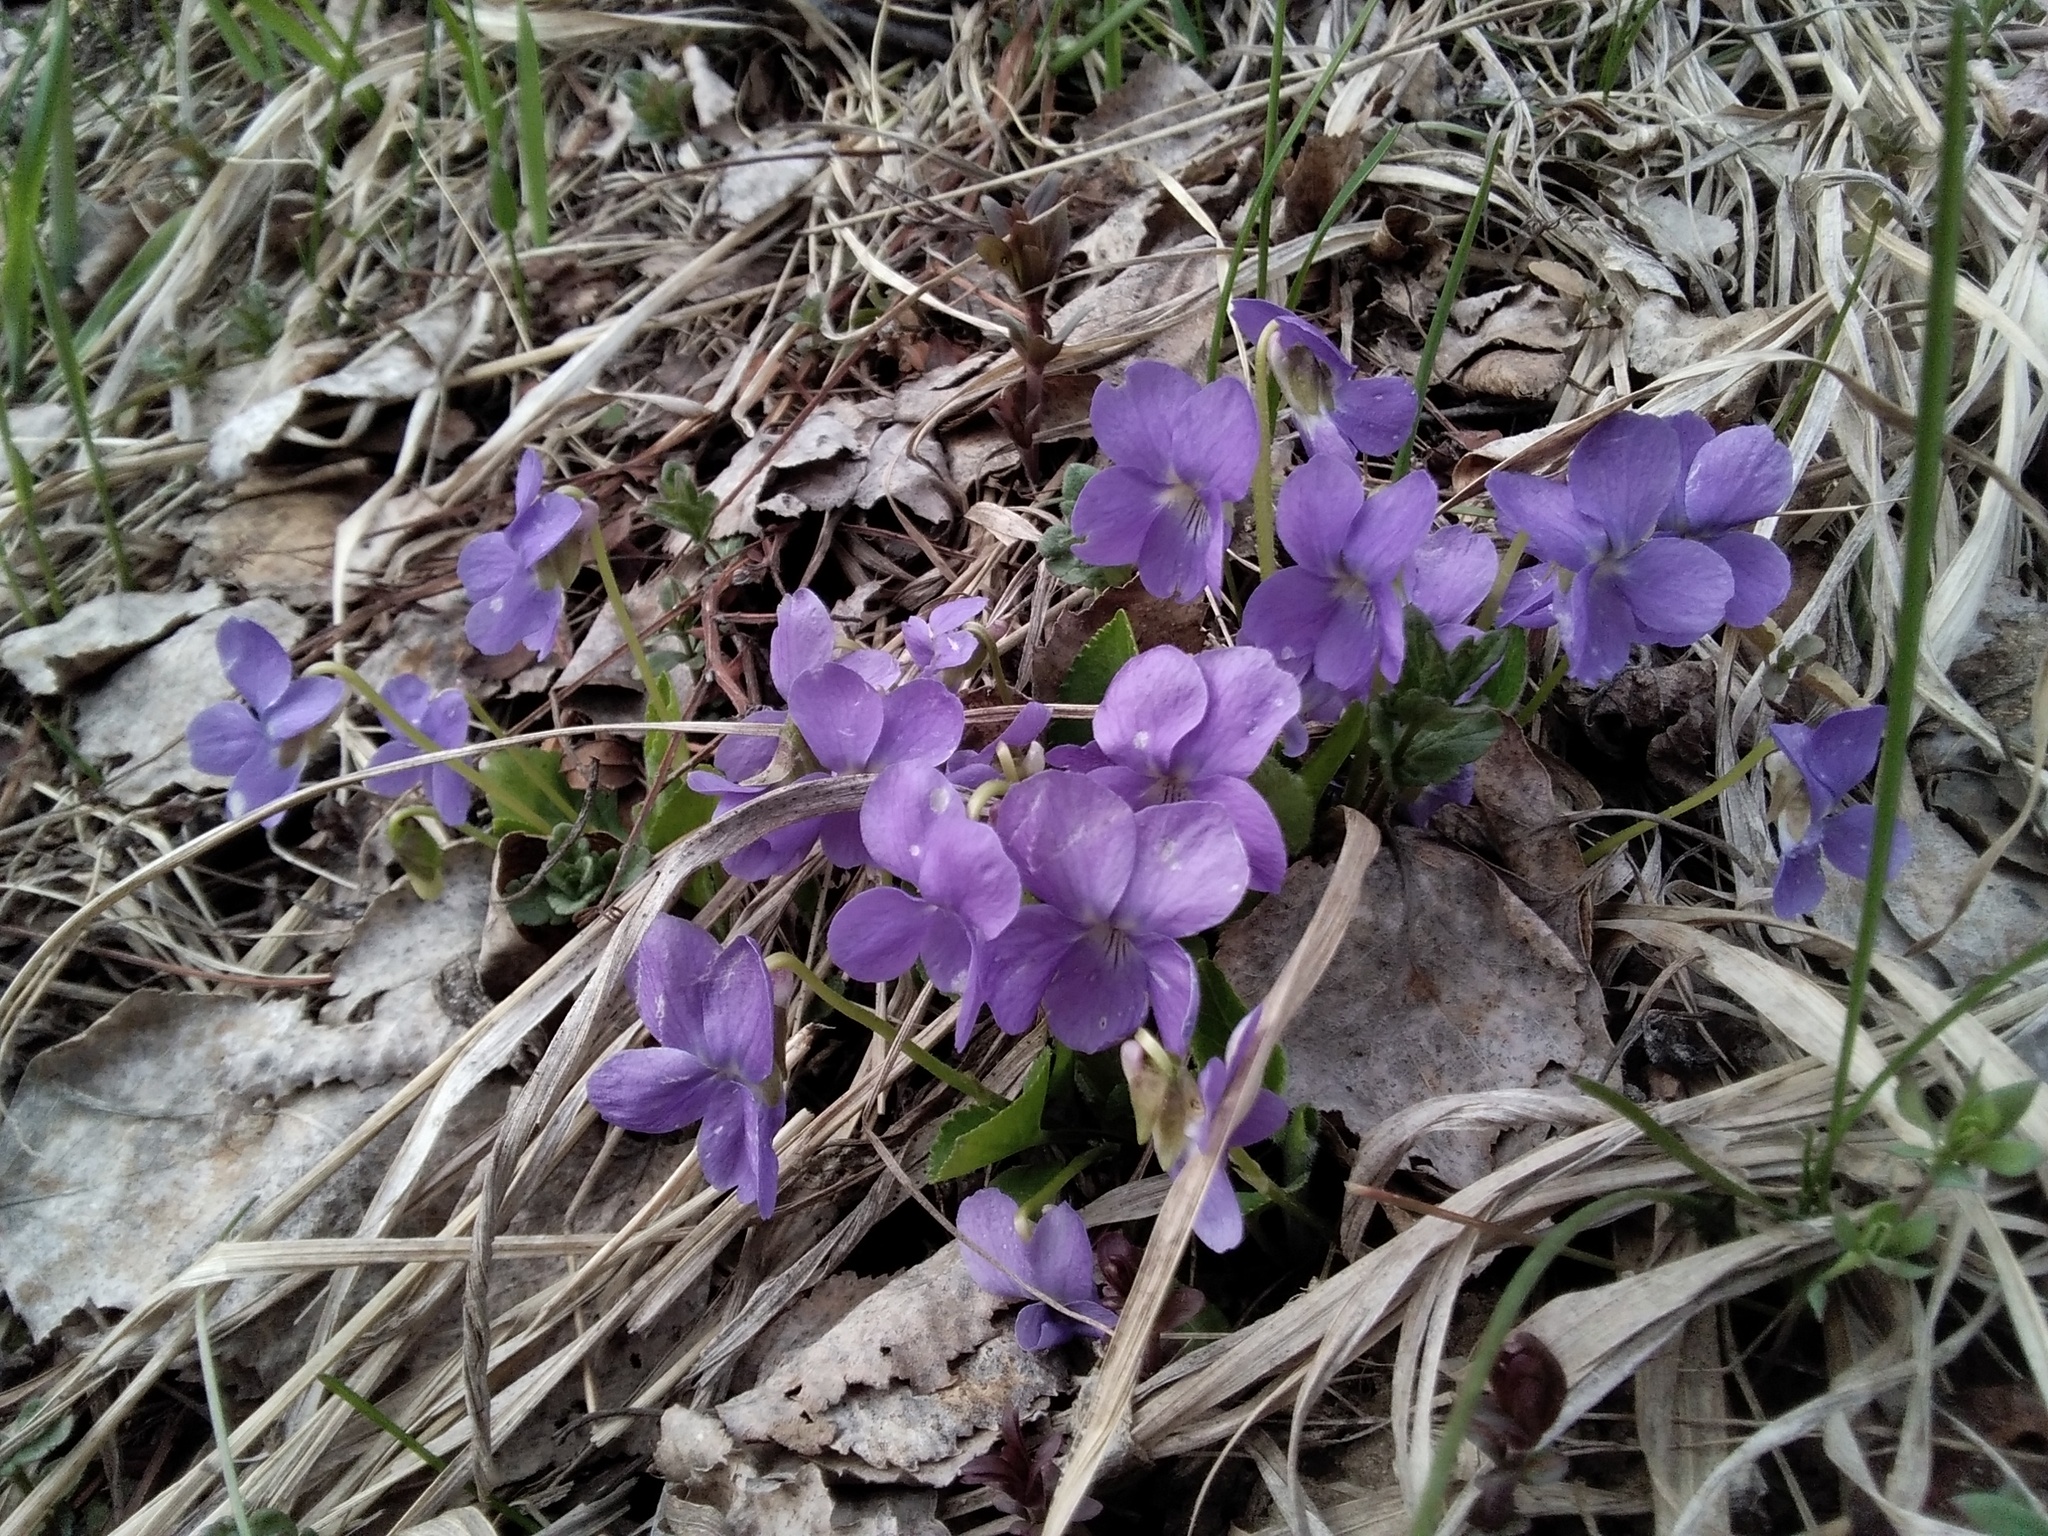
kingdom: Plantae
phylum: Tracheophyta
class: Magnoliopsida
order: Malpighiales
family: Violaceae
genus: Viola
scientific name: Viola hirta
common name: Hairy violet
